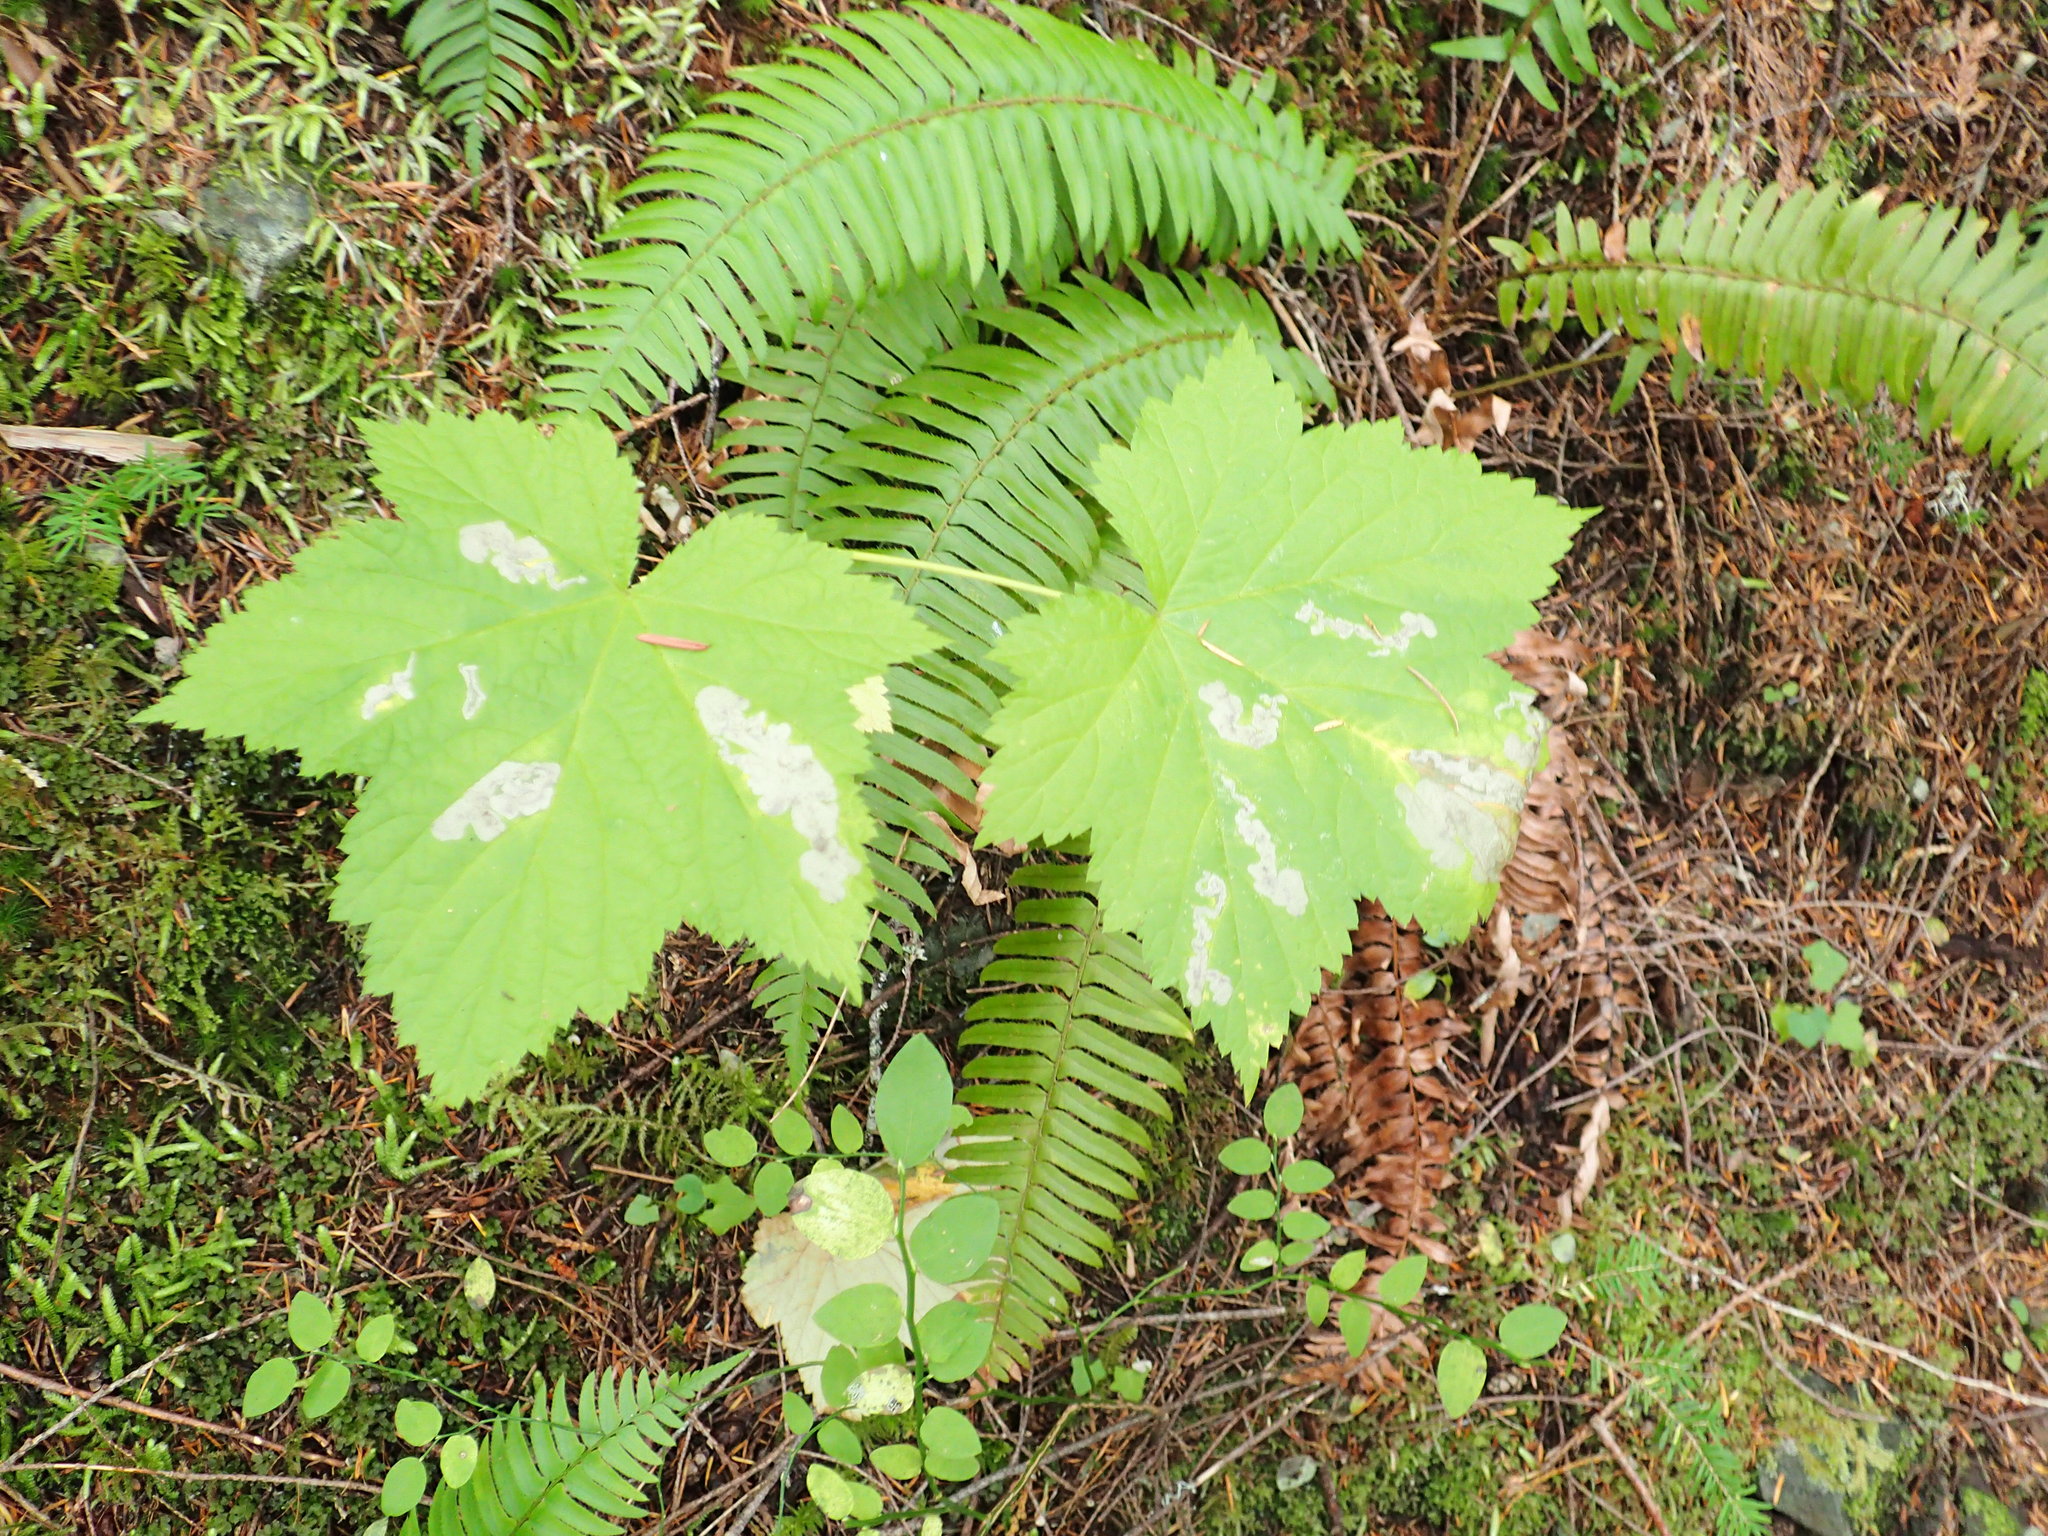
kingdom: Plantae
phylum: Tracheophyta
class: Magnoliopsida
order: Rosales
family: Rosaceae
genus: Rubus
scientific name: Rubus parviflorus
